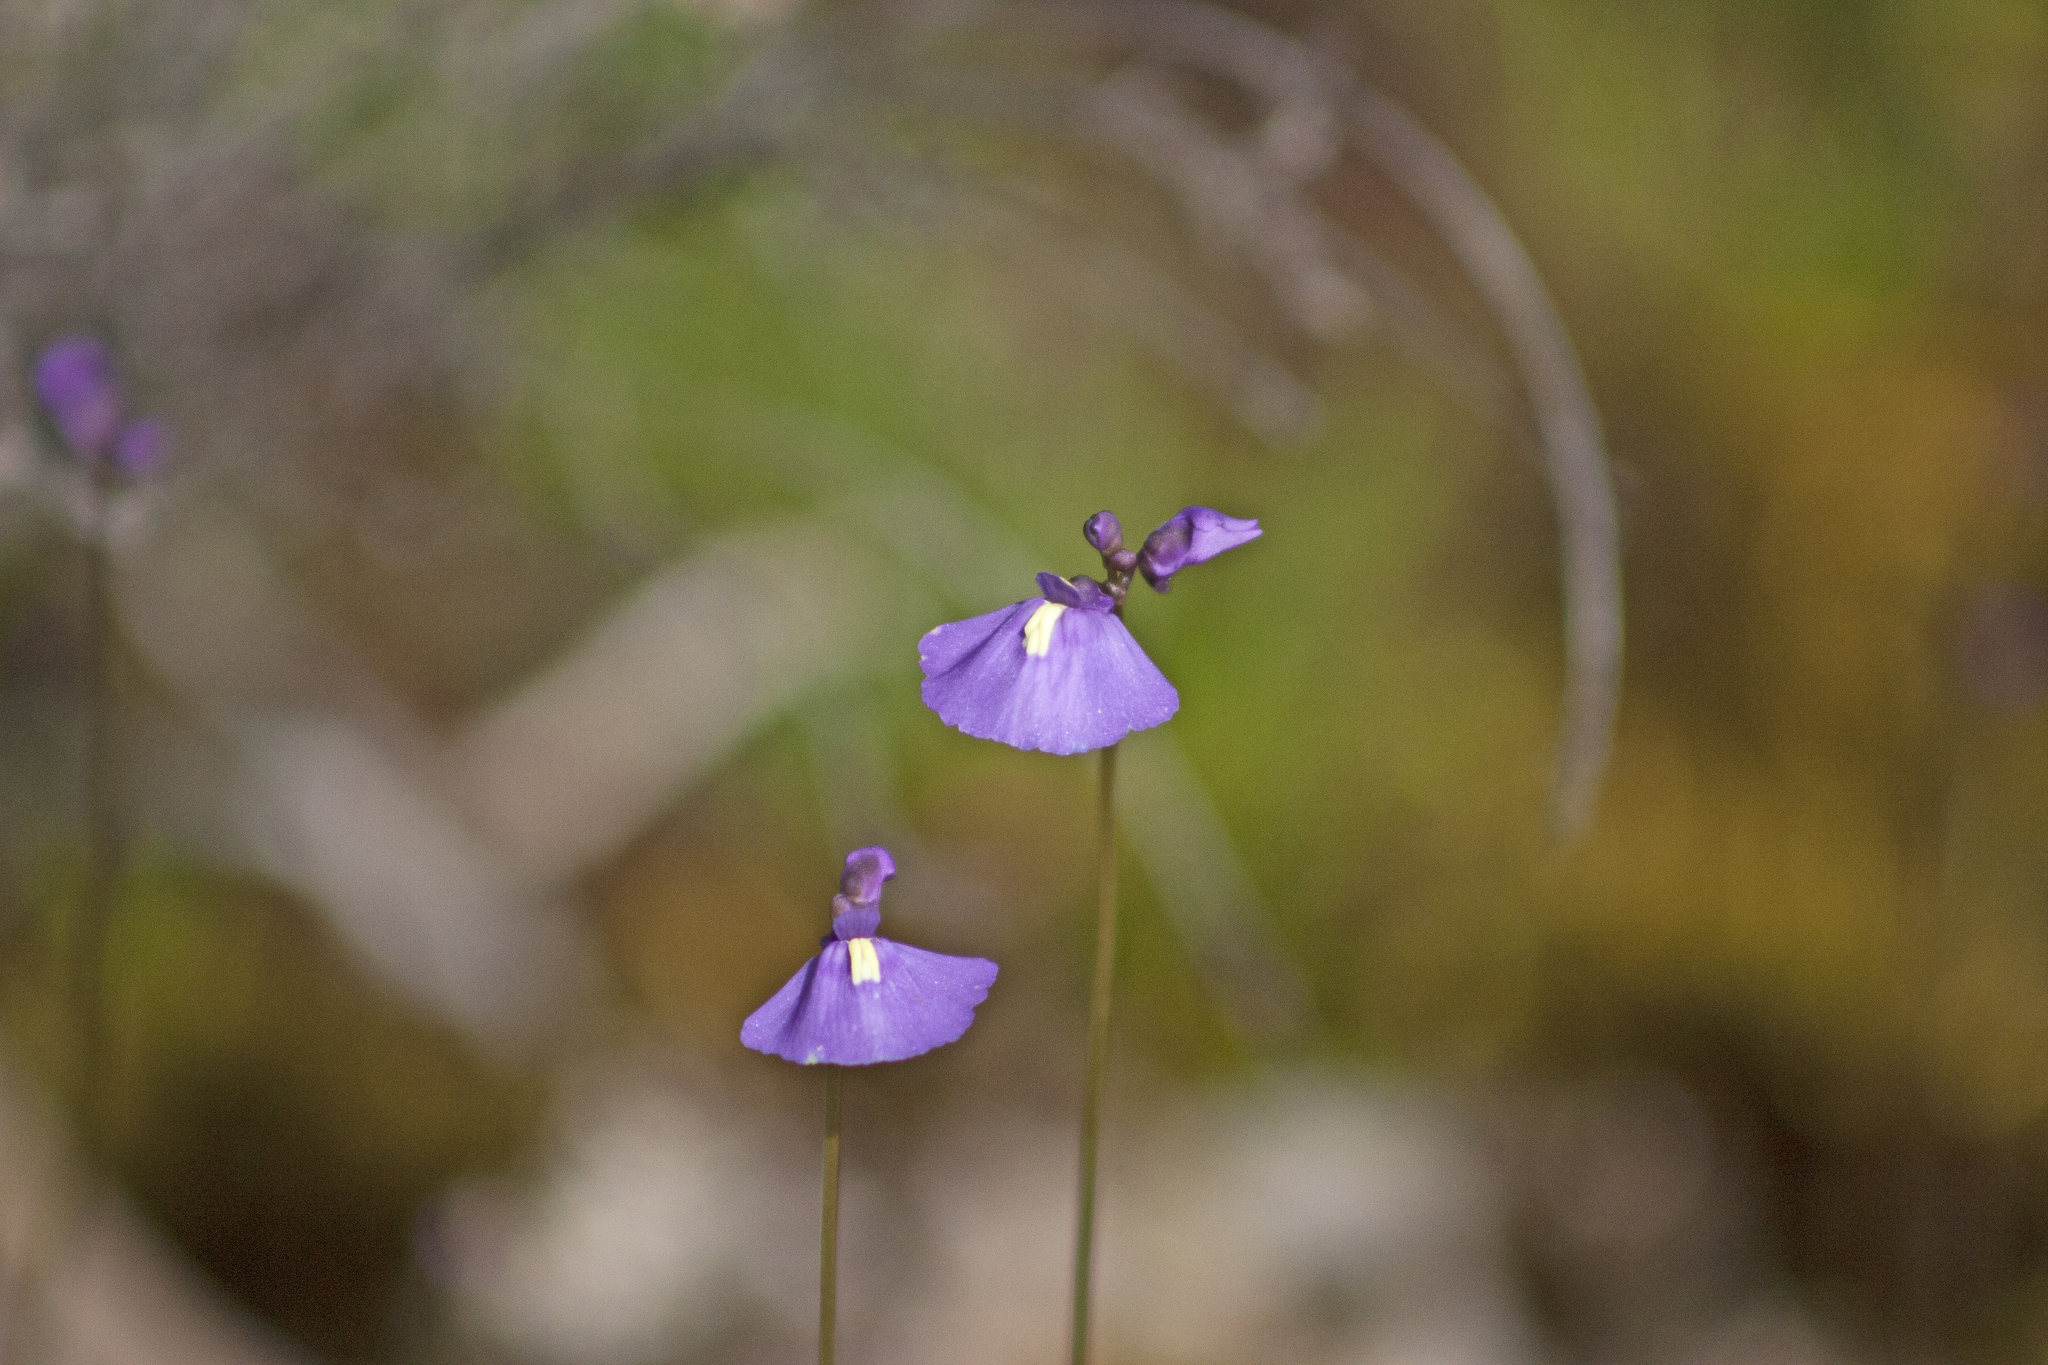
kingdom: Plantae
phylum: Tracheophyta
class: Magnoliopsida
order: Lamiales
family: Lentibulariaceae
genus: Utricularia
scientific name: Utricularia dichotoma
